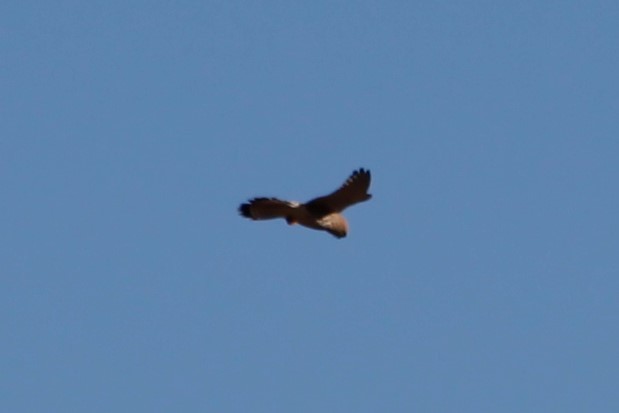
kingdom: Animalia
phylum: Chordata
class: Aves
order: Falconiformes
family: Falconidae
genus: Falco
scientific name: Falco tinnunculus
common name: Common kestrel
